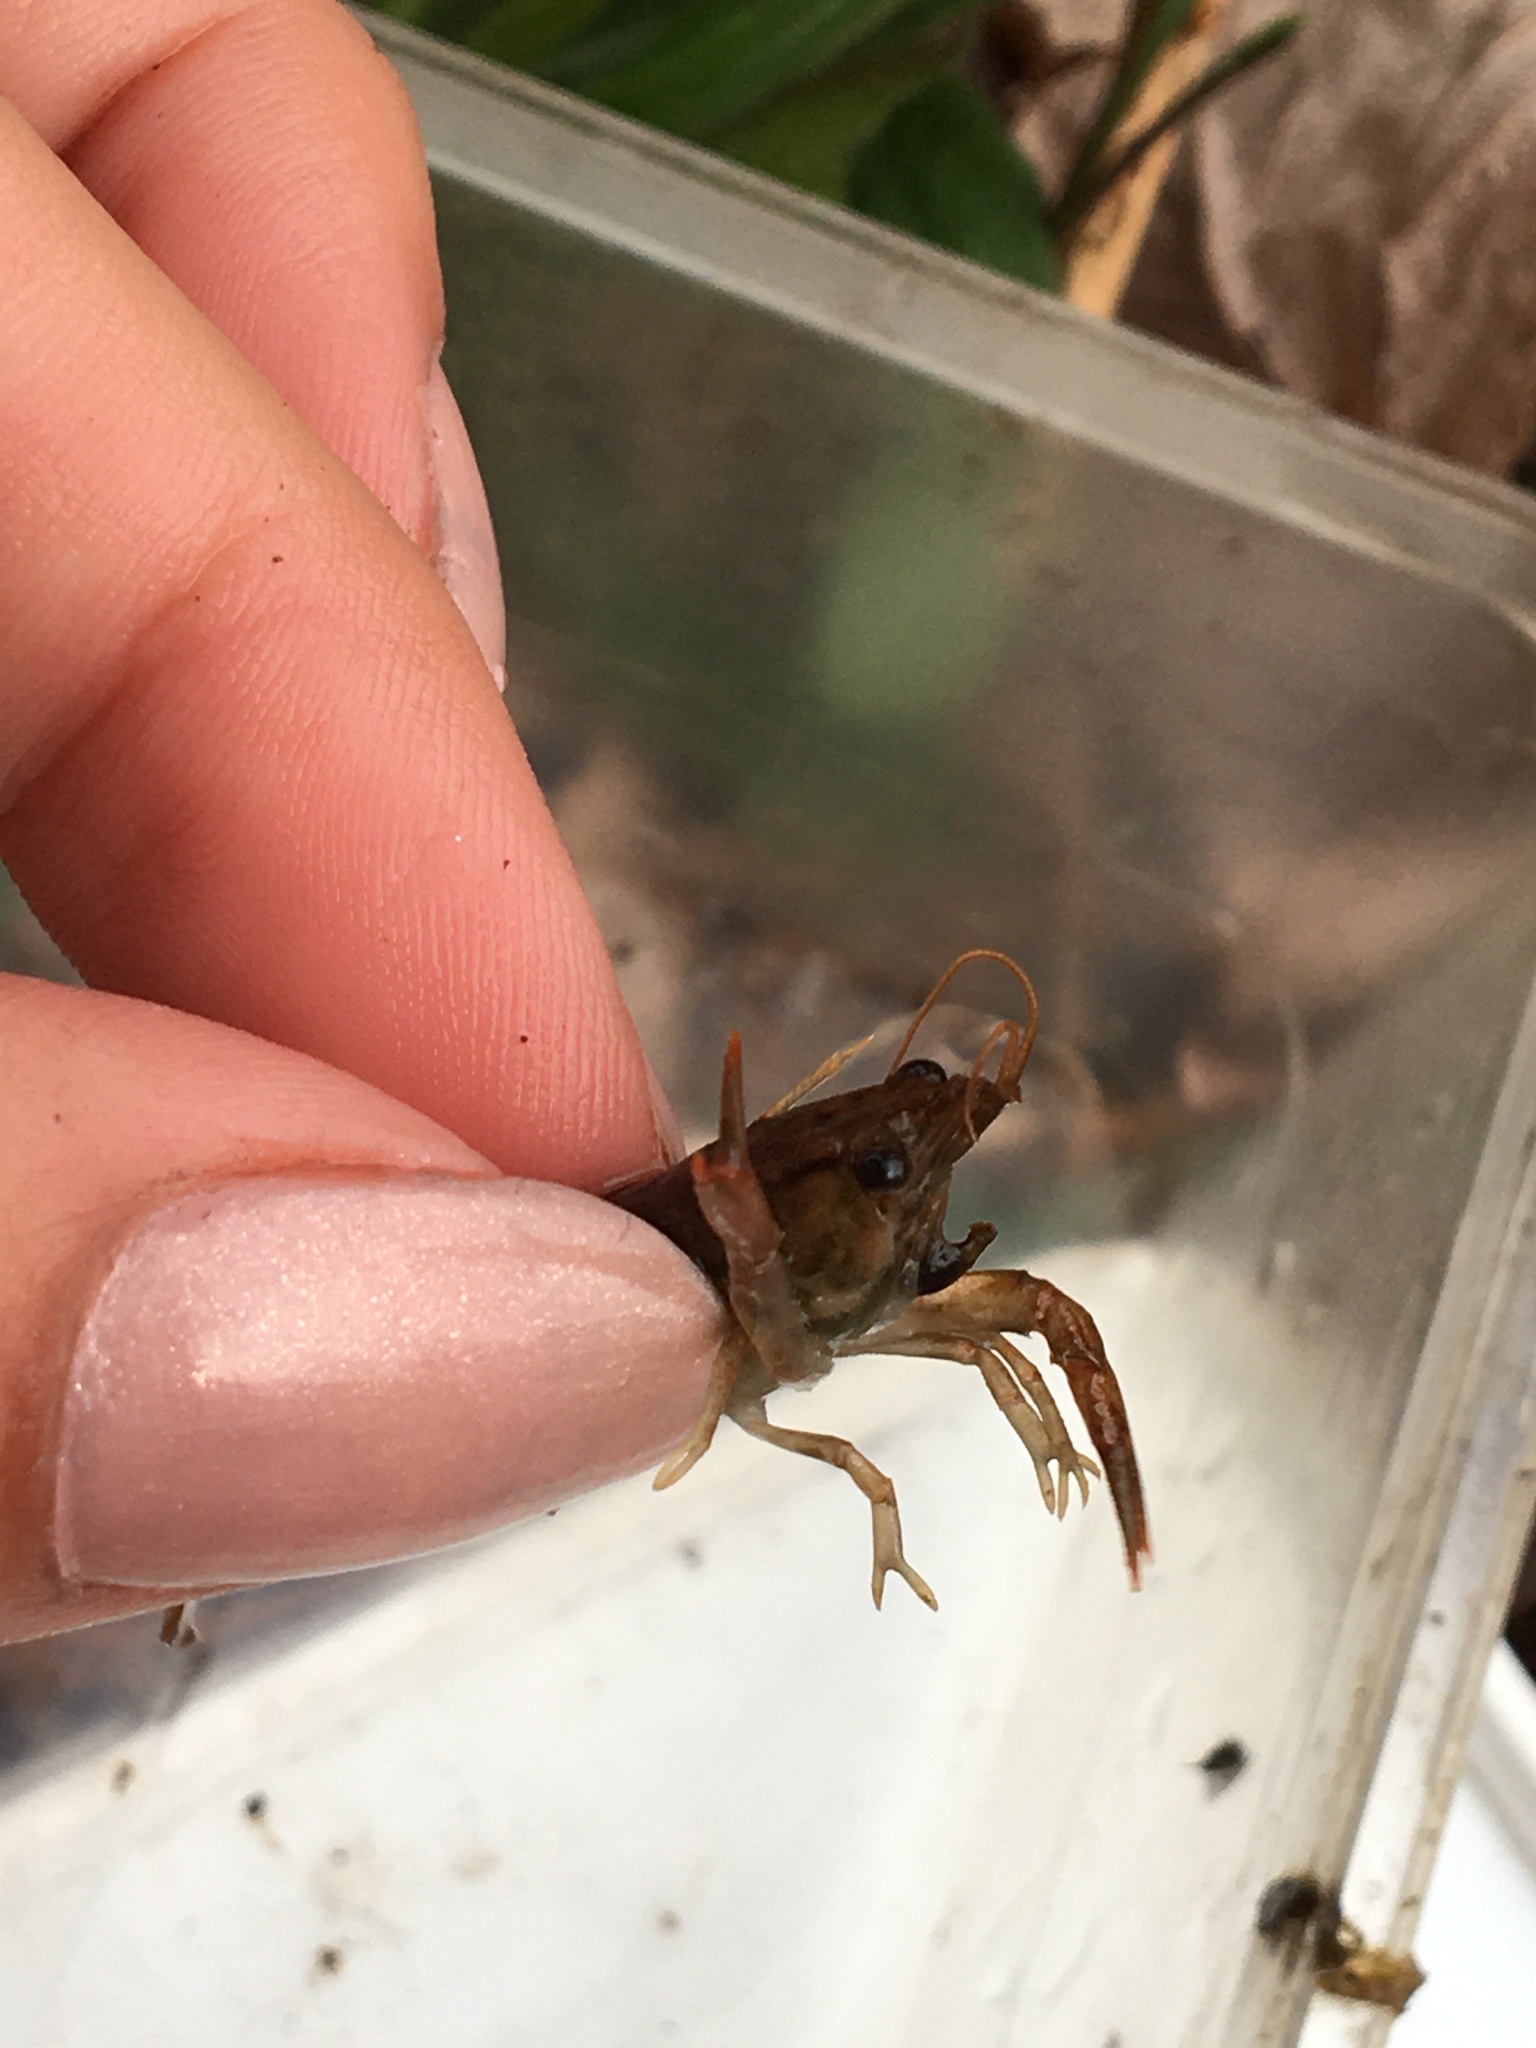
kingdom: Animalia
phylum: Arthropoda
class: Malacostraca
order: Decapoda
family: Cambaridae
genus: Faxonius
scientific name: Faxonius
